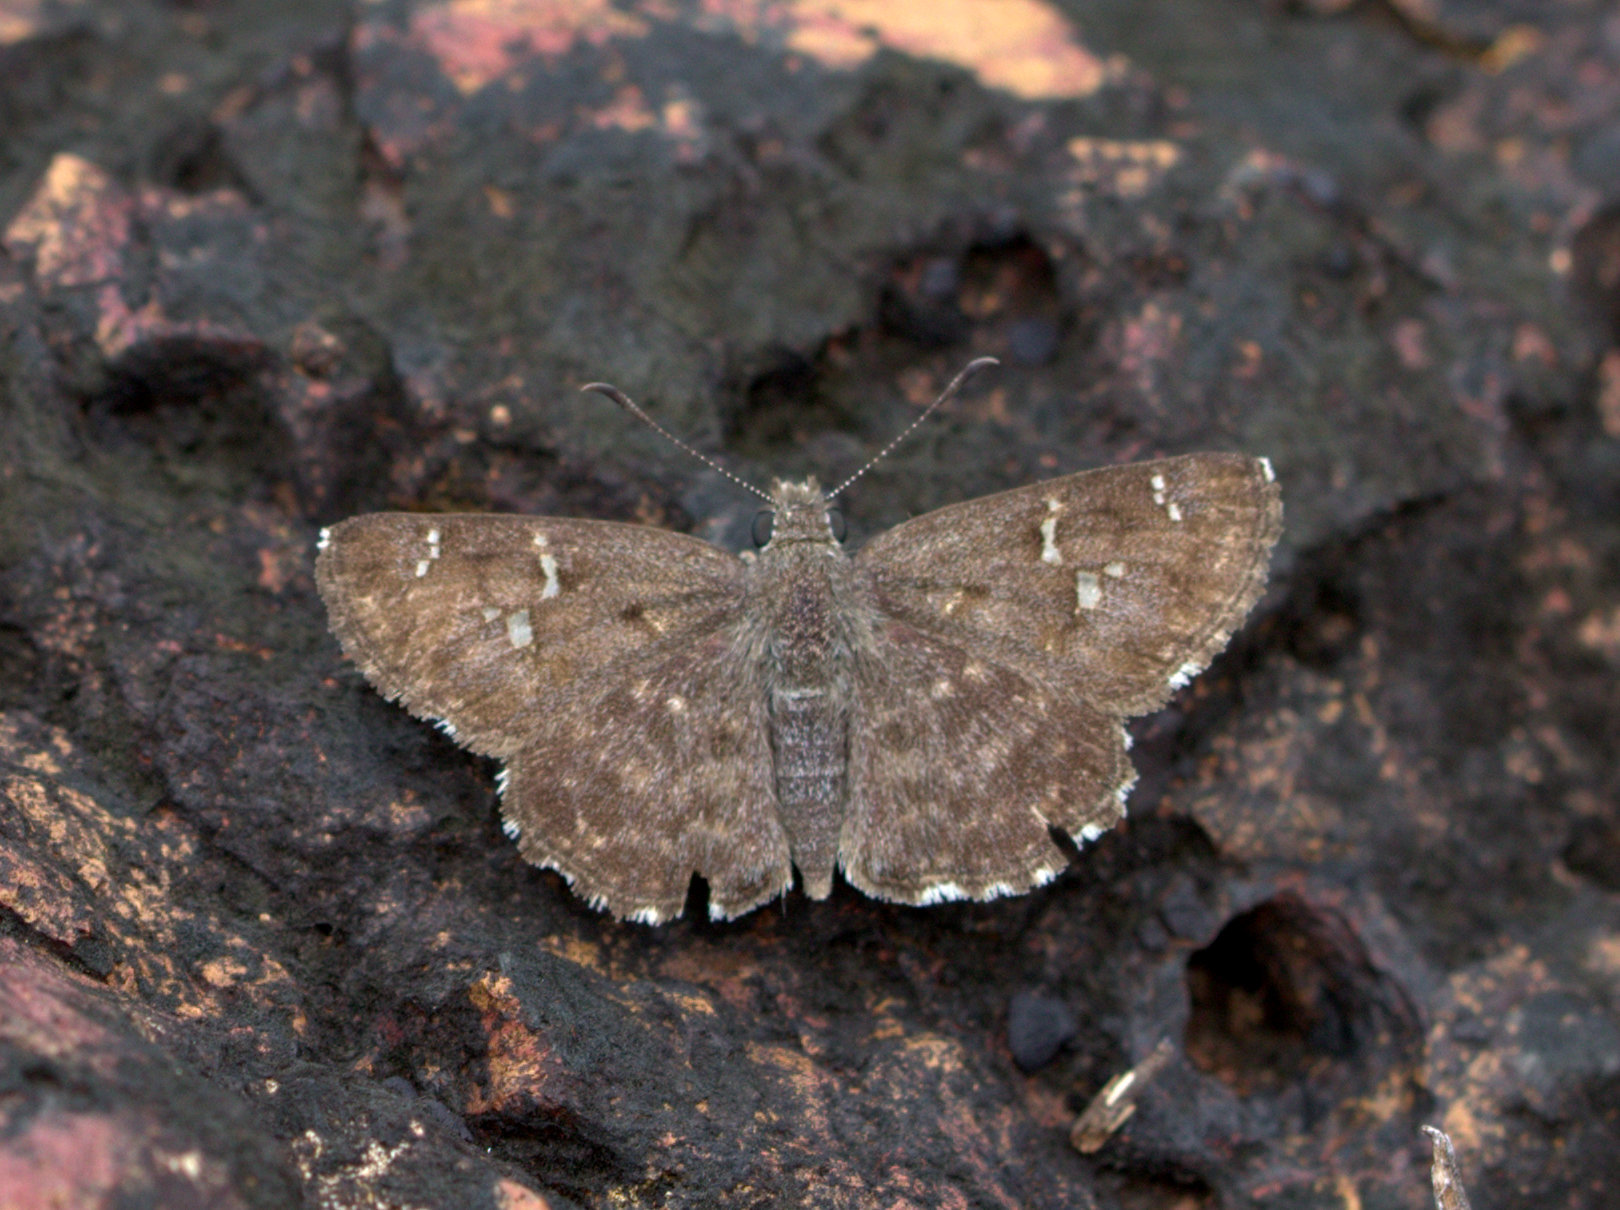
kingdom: Animalia
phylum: Arthropoda
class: Insecta
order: Lepidoptera
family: Hesperiidae
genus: Sarangesa
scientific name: Sarangesa purendra
